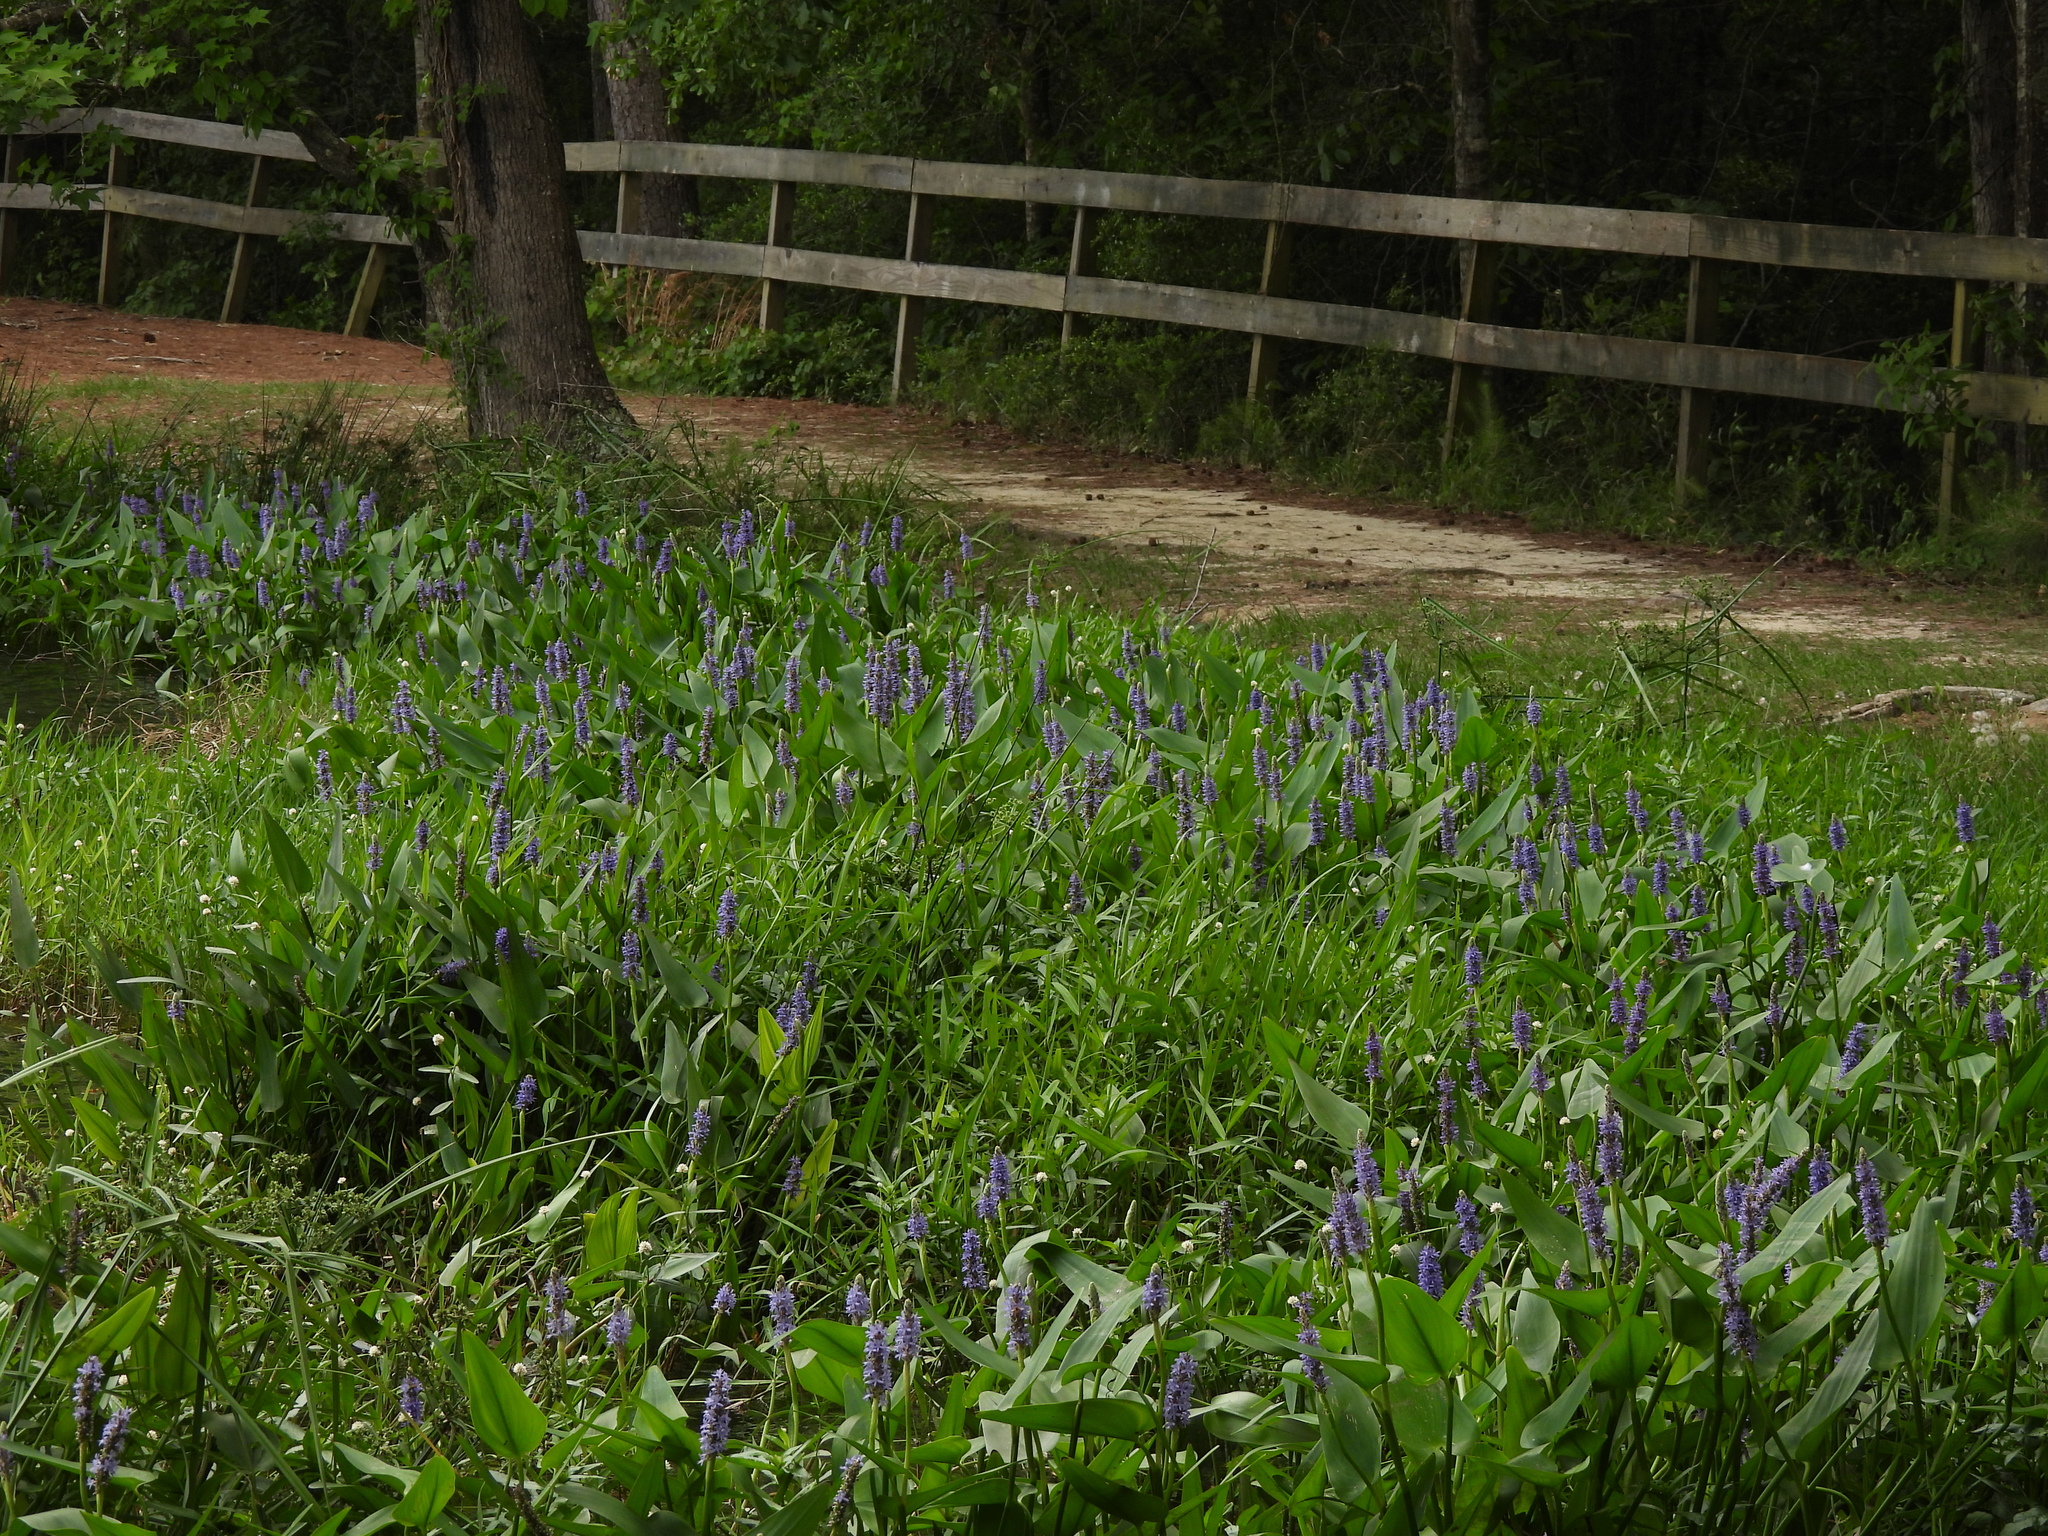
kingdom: Plantae
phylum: Tracheophyta
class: Liliopsida
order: Commelinales
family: Pontederiaceae
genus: Pontederia
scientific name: Pontederia cordata
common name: Pickerelweed
